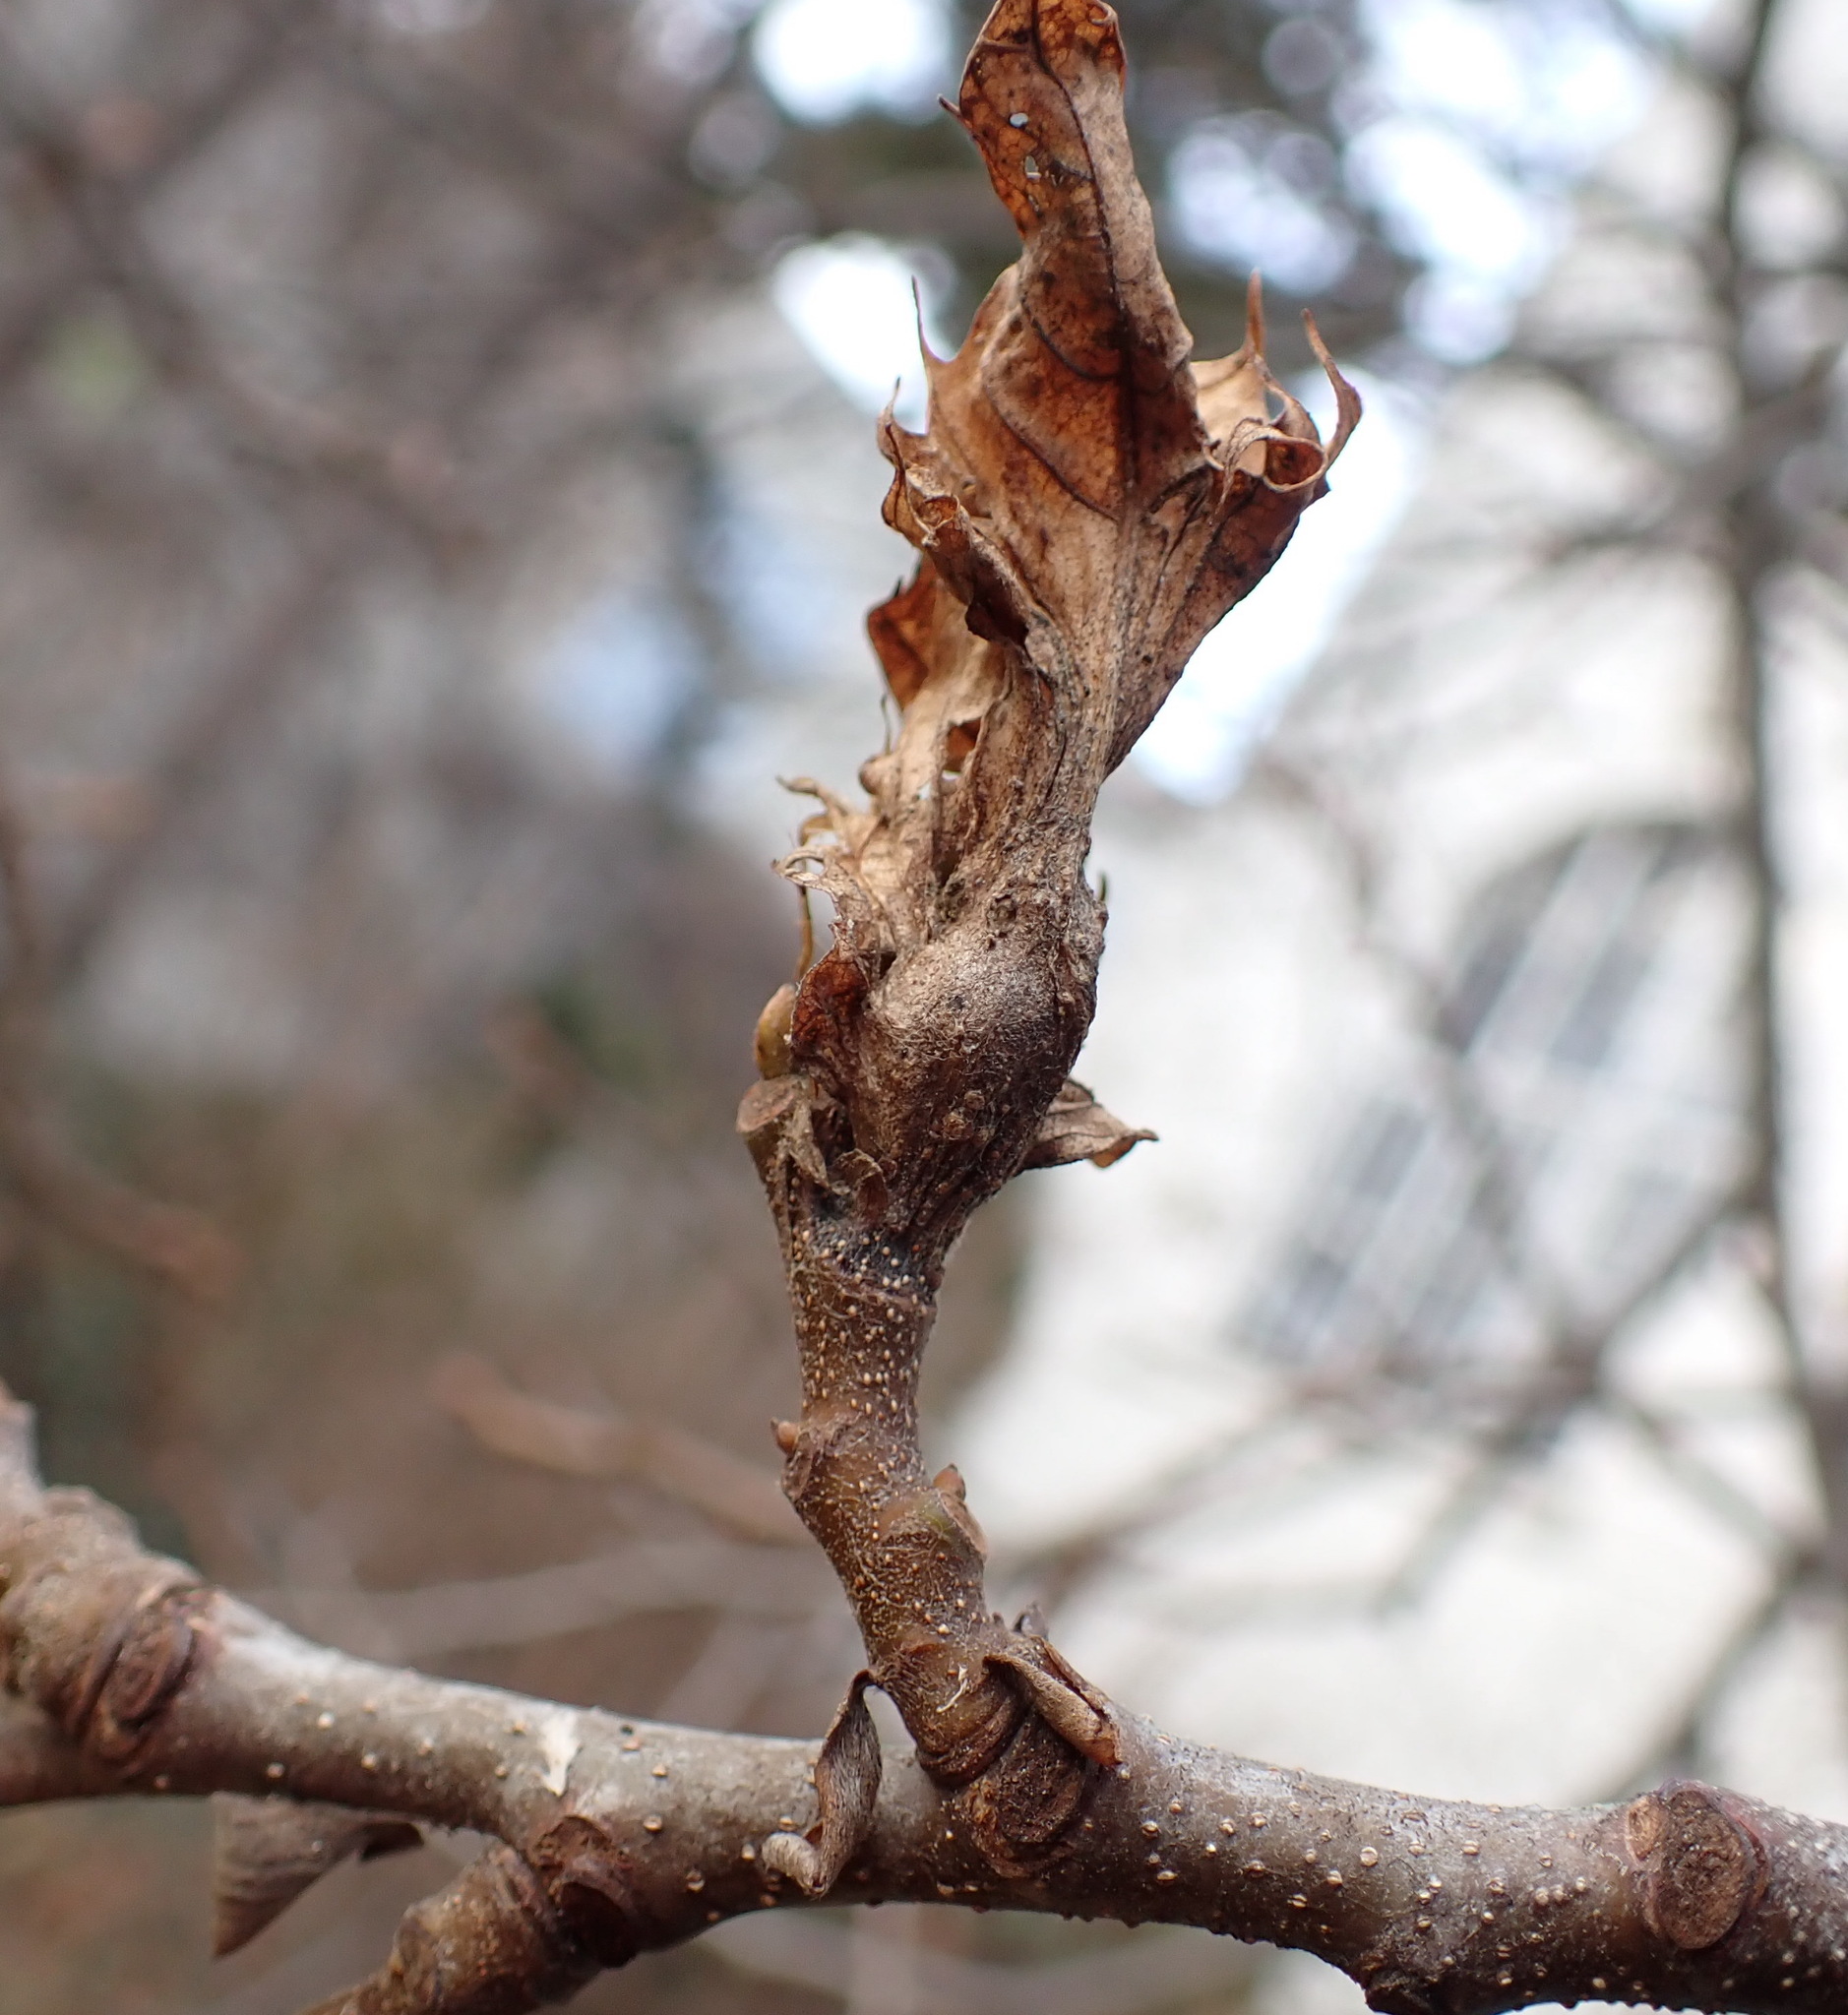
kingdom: Animalia
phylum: Arthropoda
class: Insecta
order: Hymenoptera
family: Cynipidae
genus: Dryocosmus
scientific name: Dryocosmus kuriphilus
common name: Asian chestnut gall wasp
